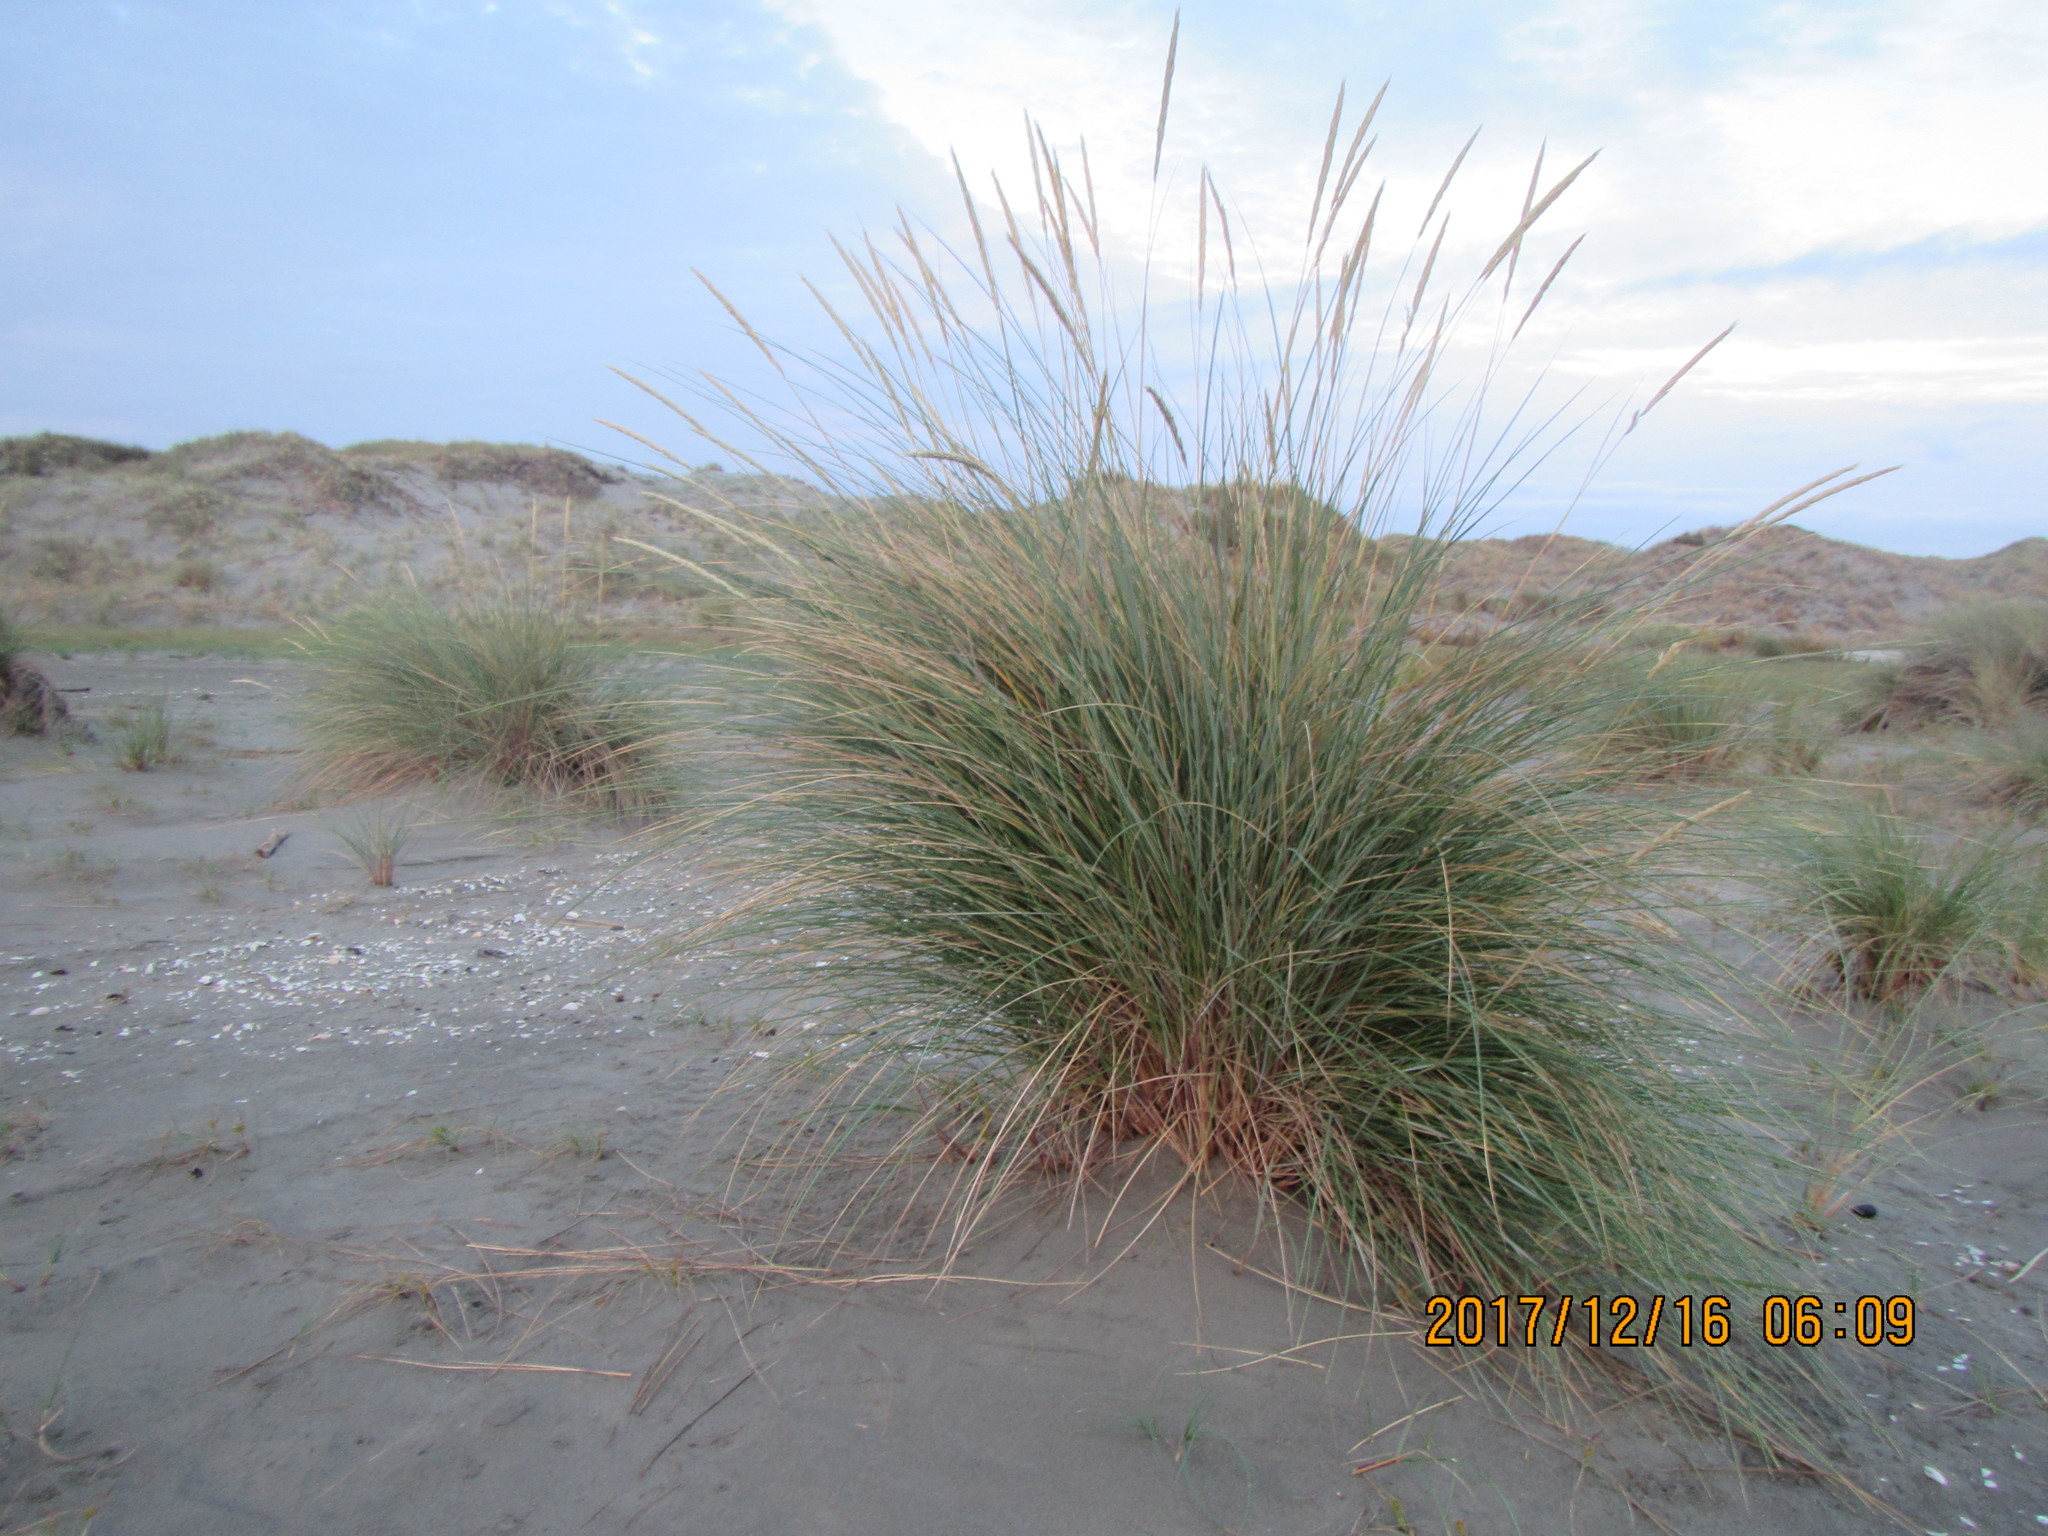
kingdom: Plantae
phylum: Tracheophyta
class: Liliopsida
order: Poales
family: Poaceae
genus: Calamagrostis
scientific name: Calamagrostis arenaria
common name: European beachgrass
